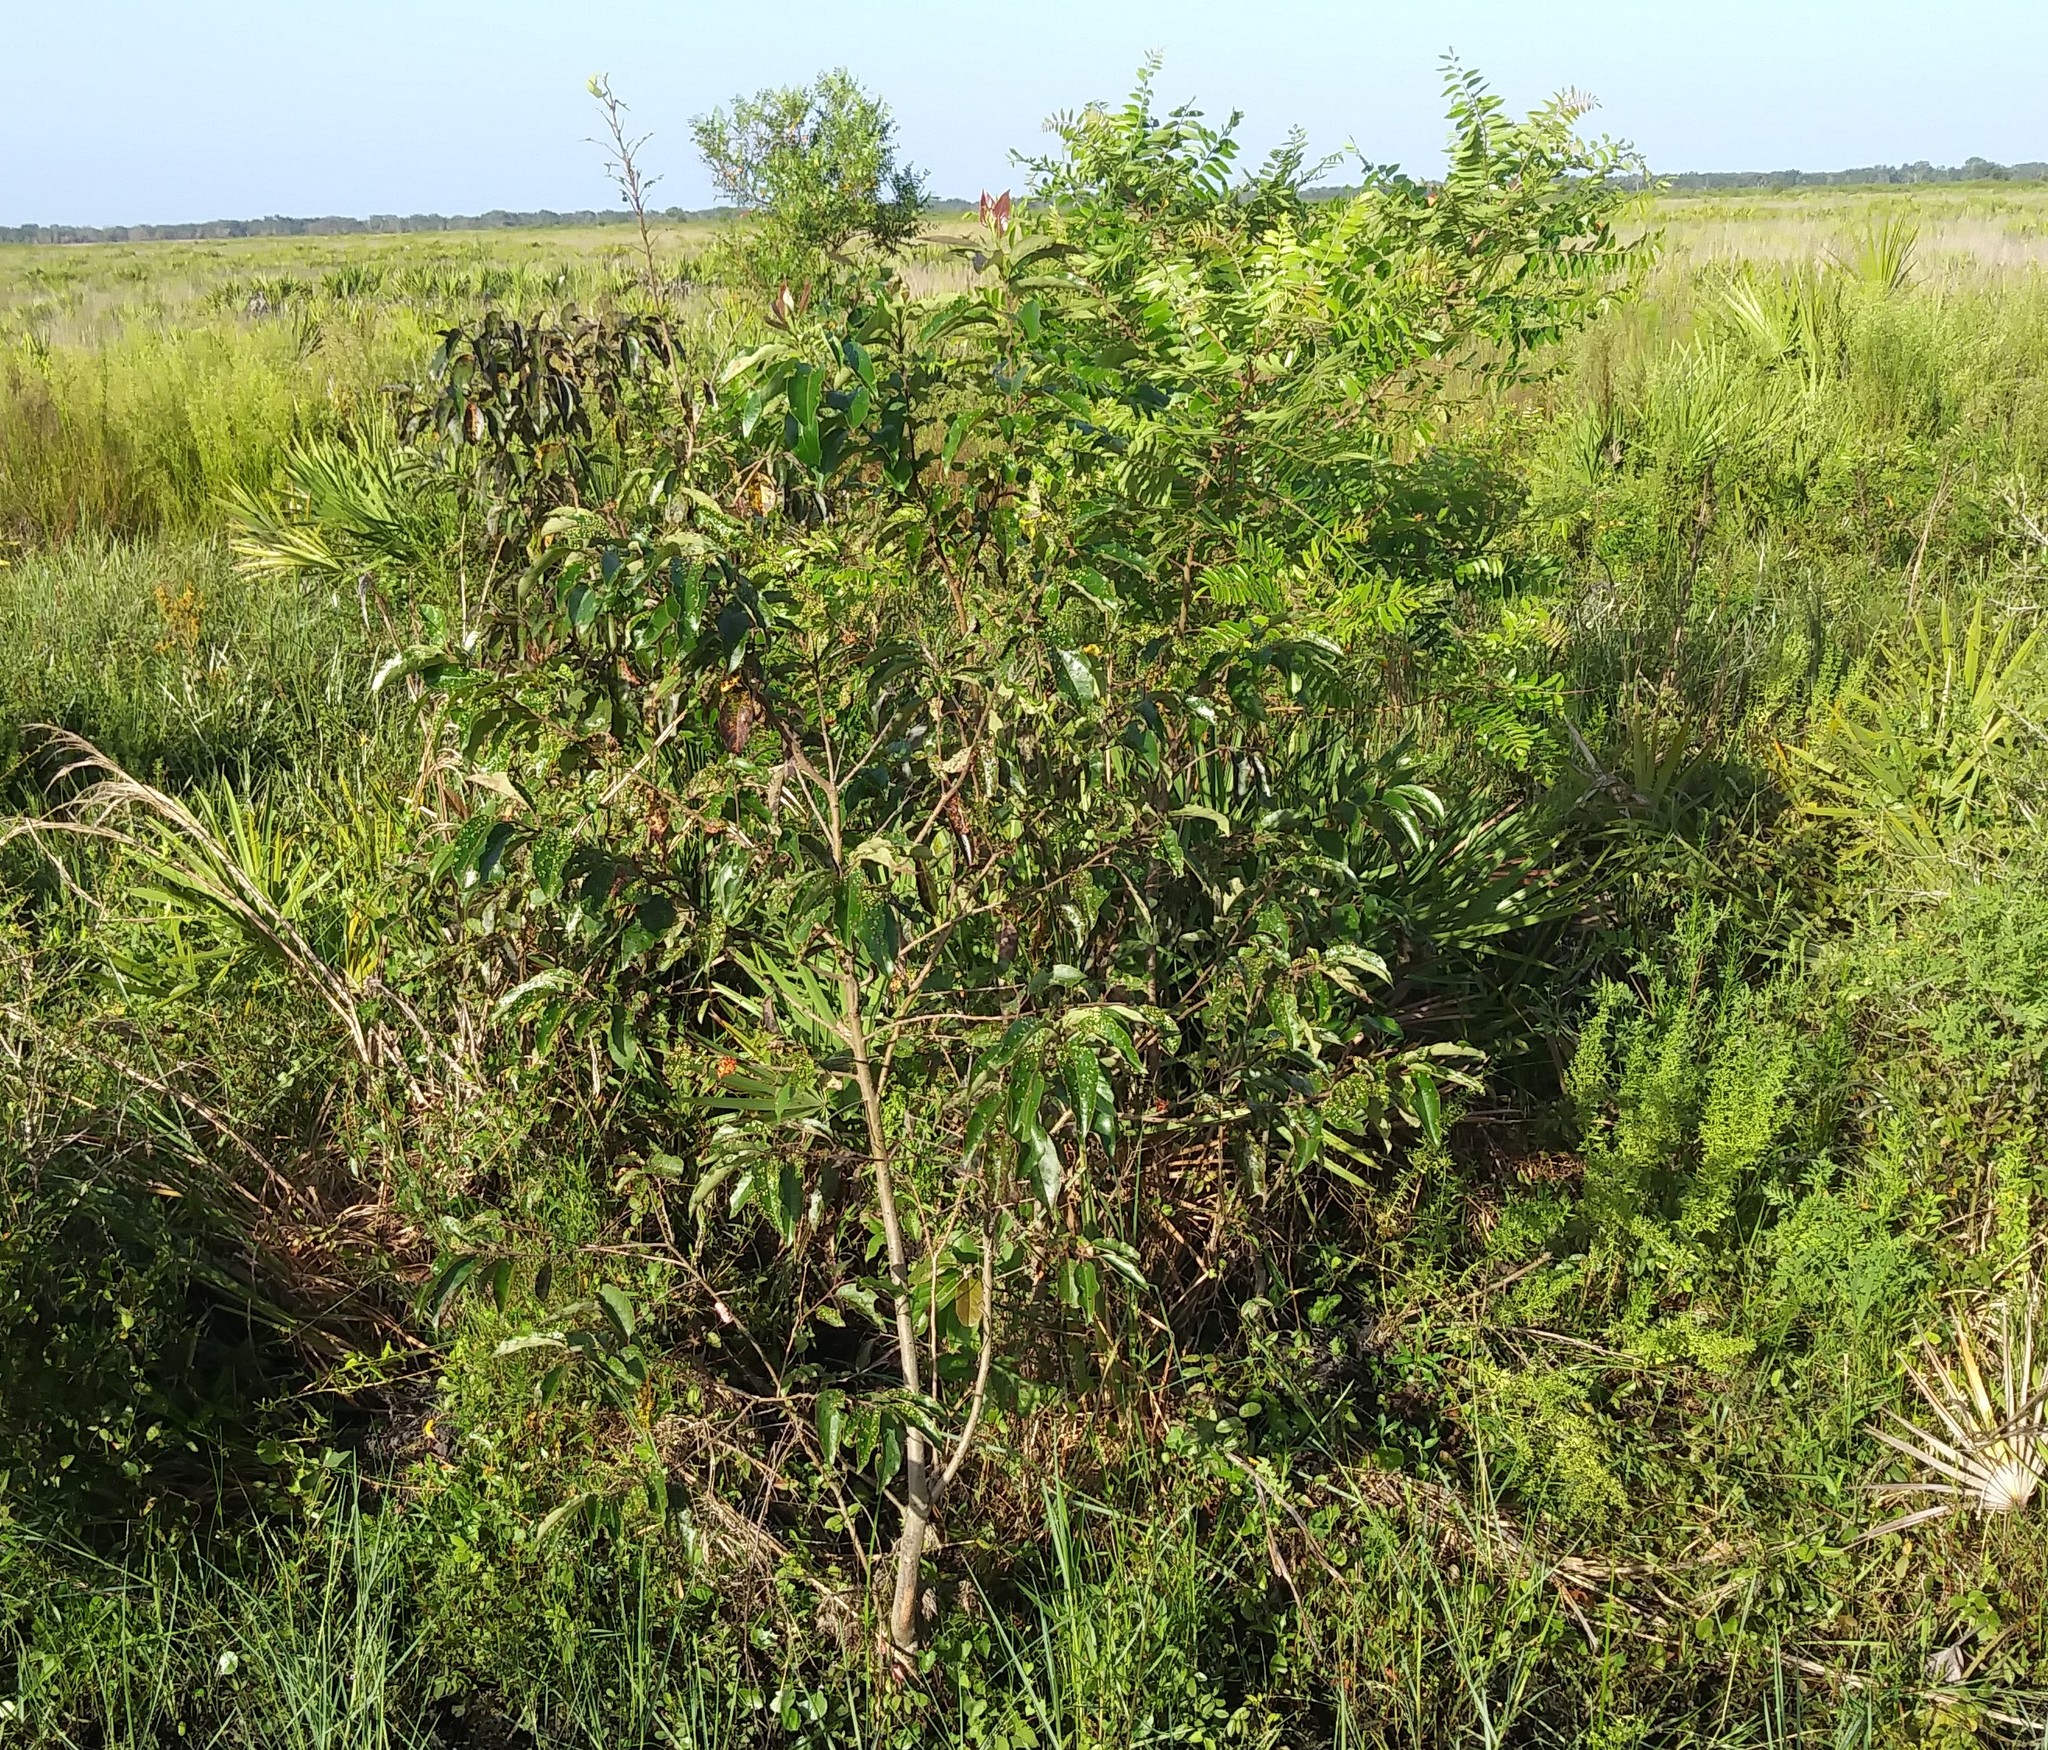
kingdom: Plantae
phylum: Tracheophyta
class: Magnoliopsida
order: Ericales
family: Ebenaceae
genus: Diospyros
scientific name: Diospyros virginiana
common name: Persimmon
